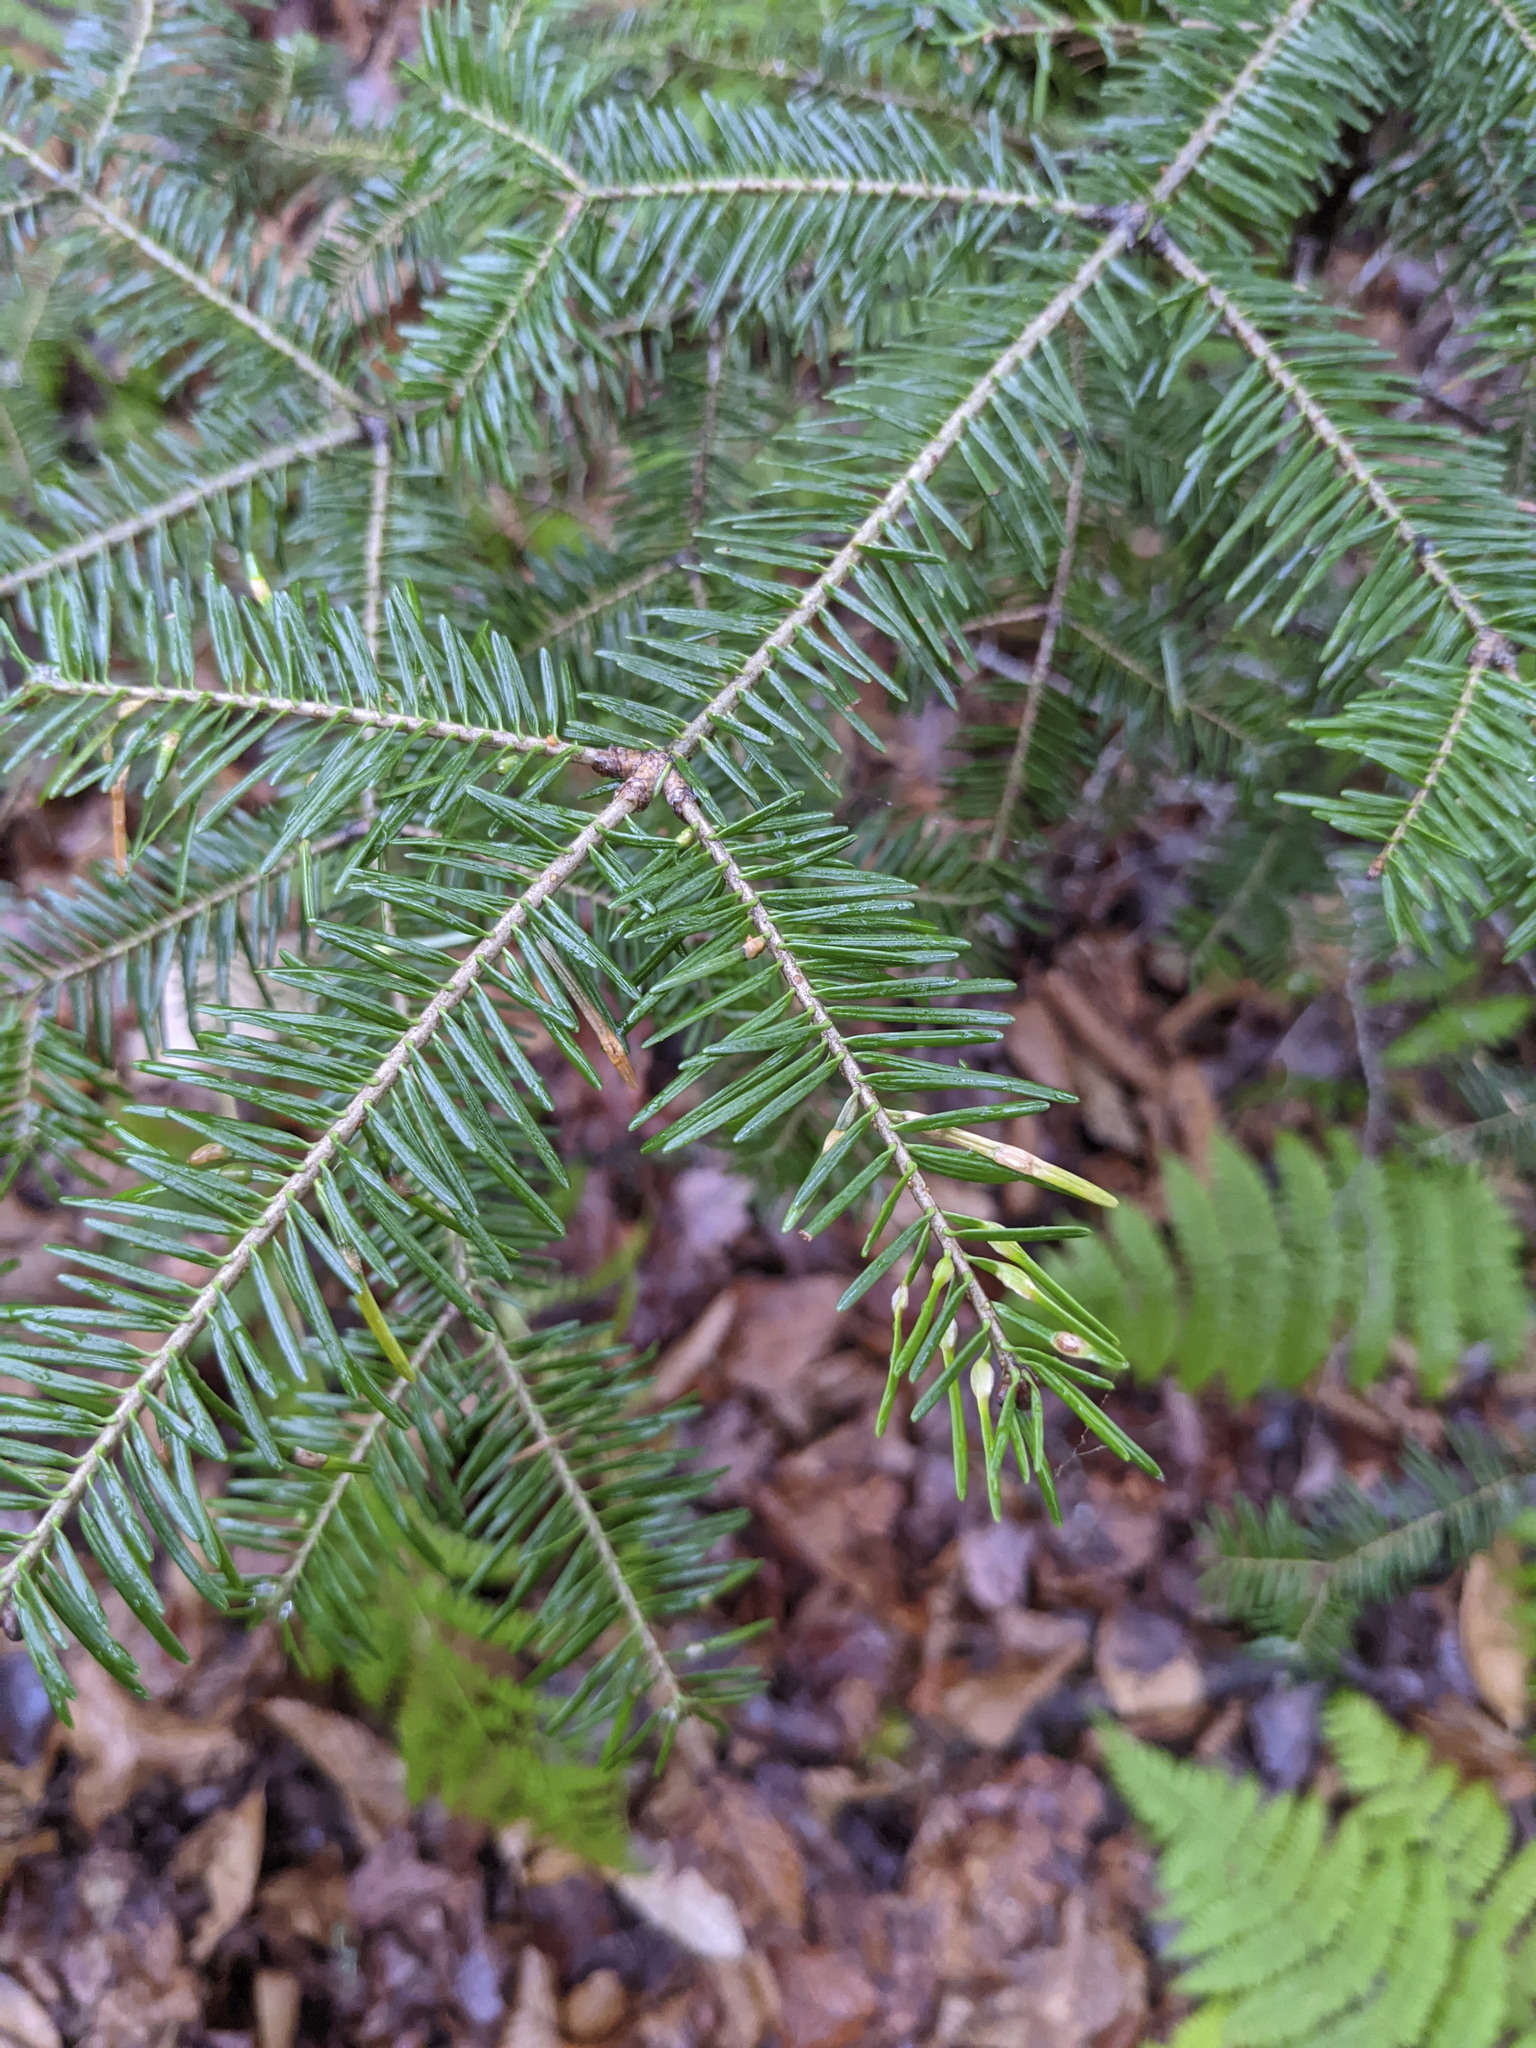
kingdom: Plantae
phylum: Tracheophyta
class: Pinopsida
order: Pinales
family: Pinaceae
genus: Abies
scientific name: Abies balsamea
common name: Balsam fir
